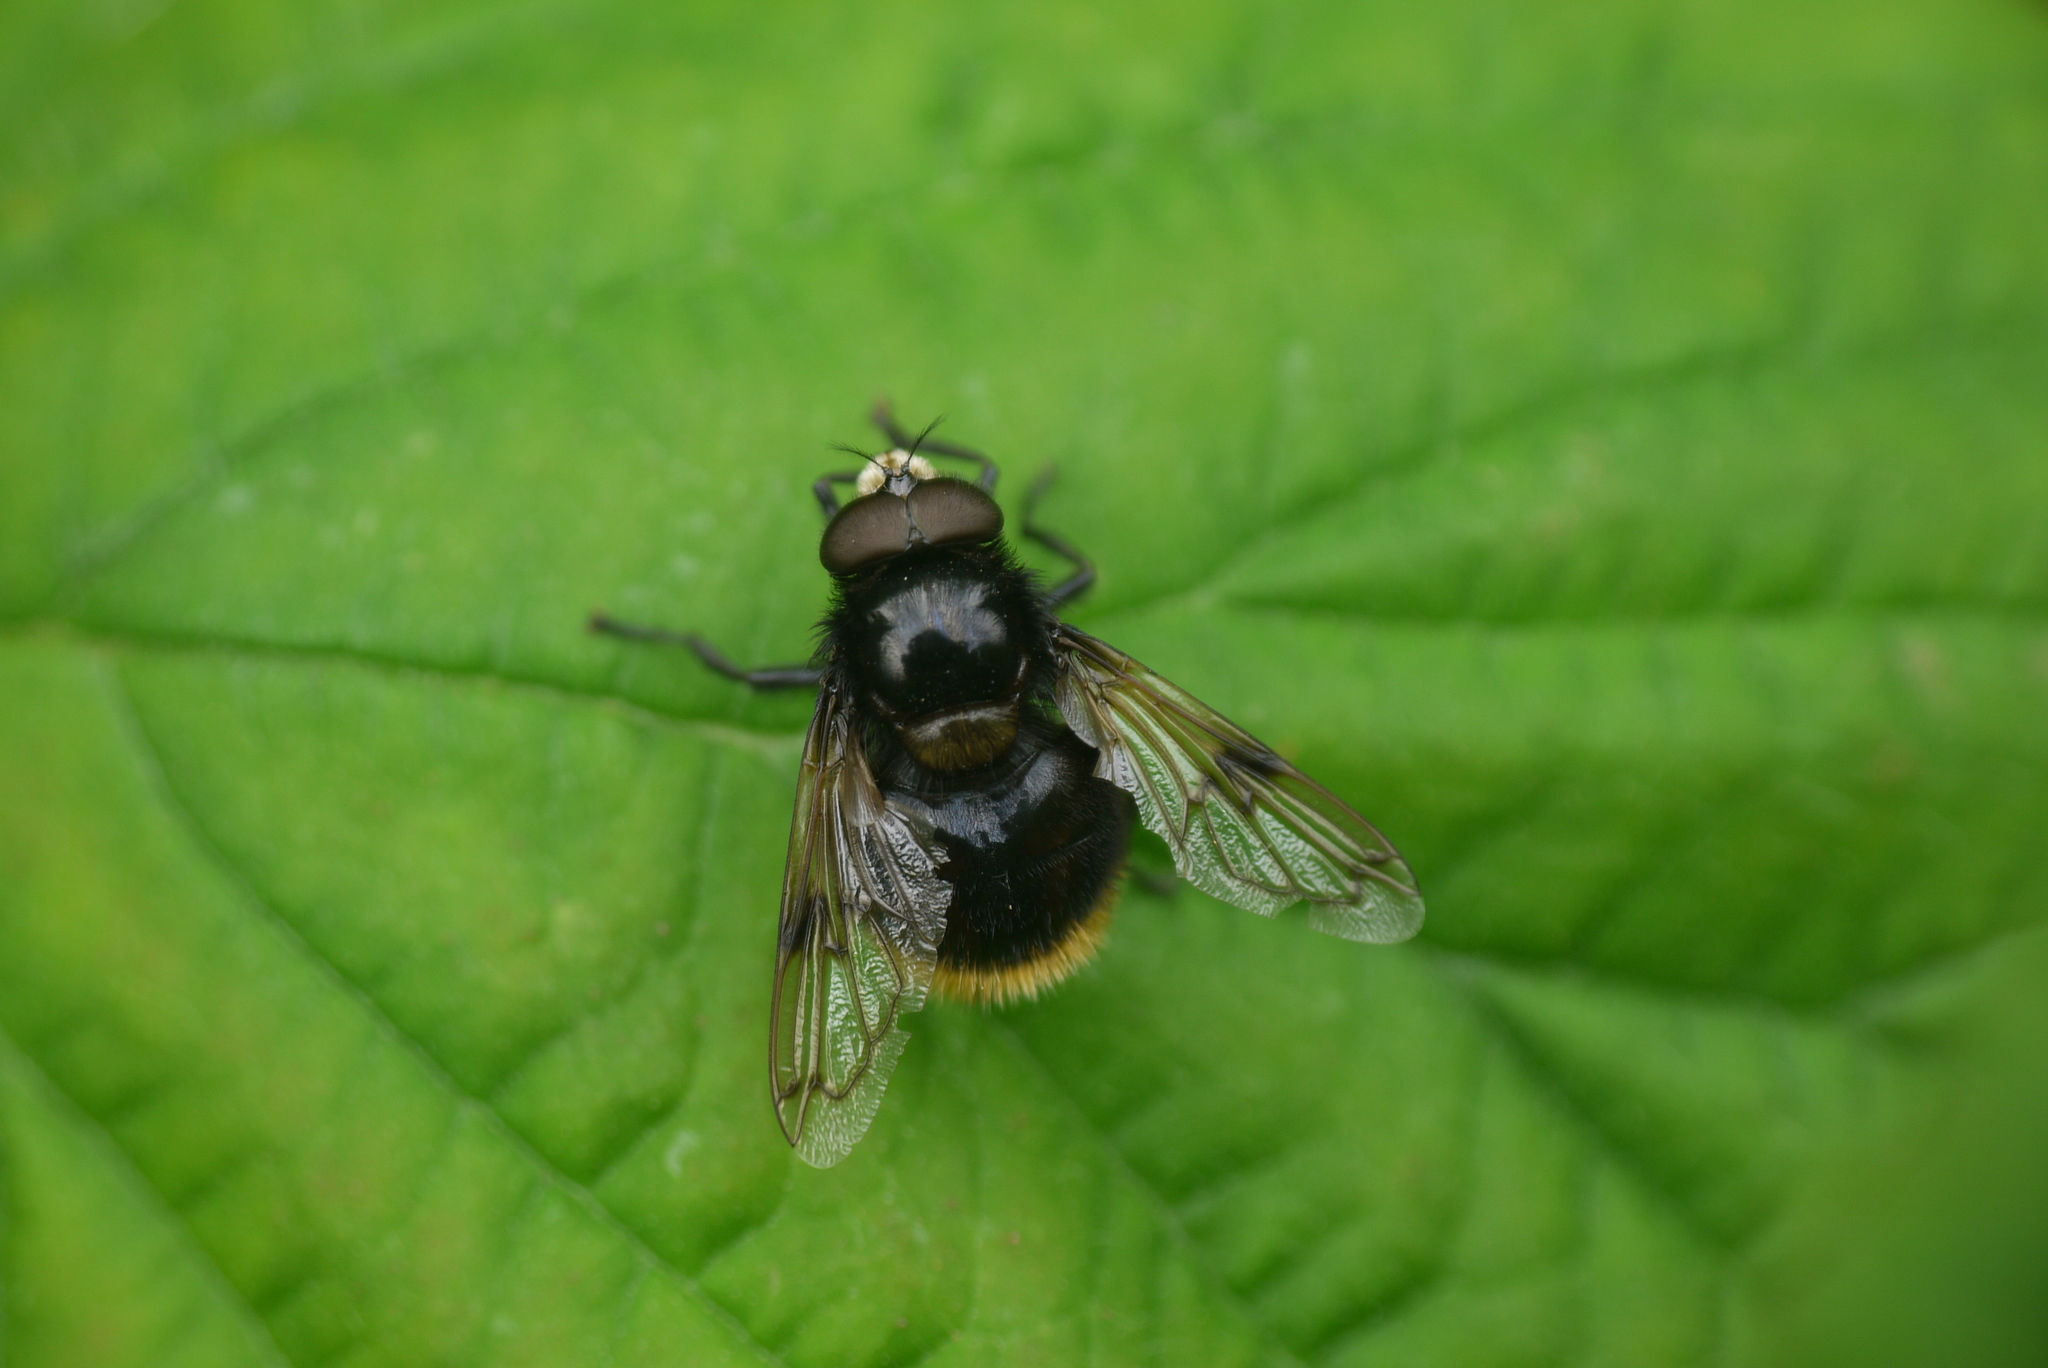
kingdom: Animalia
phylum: Arthropoda
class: Insecta
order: Diptera
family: Syrphidae
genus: Volucella
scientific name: Volucella bombylans
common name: Bumble bee hover fly
